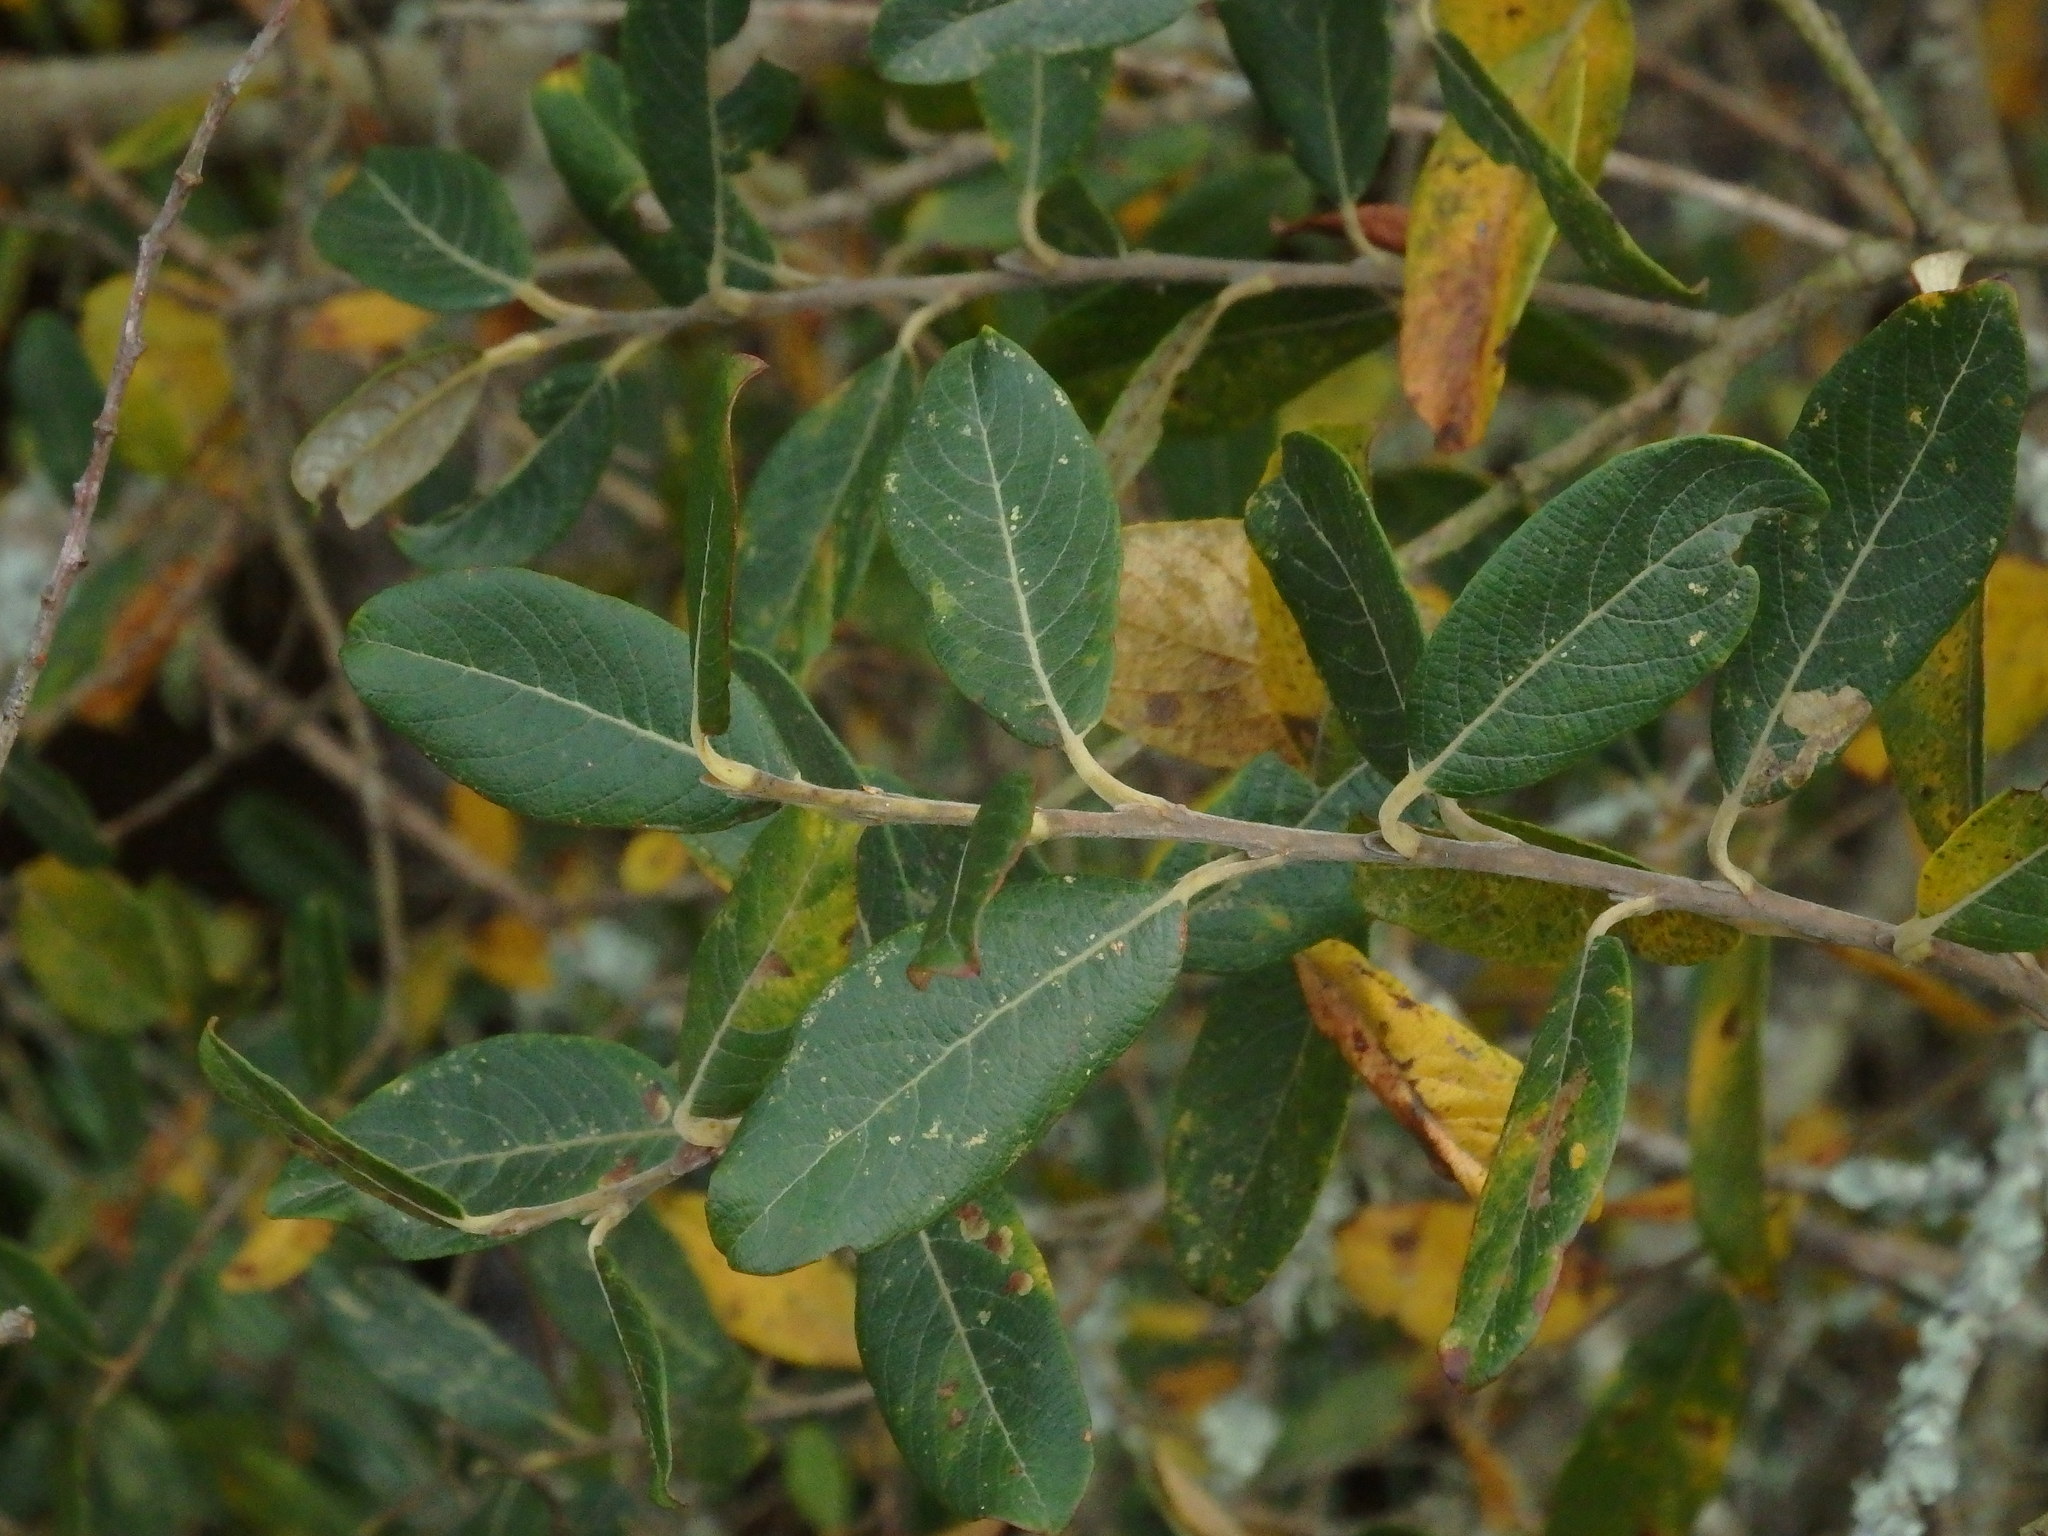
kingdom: Plantae
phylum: Tracheophyta
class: Magnoliopsida
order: Malpighiales
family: Salicaceae
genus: Salix
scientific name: Salix atrocinerea
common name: Rusty willow
